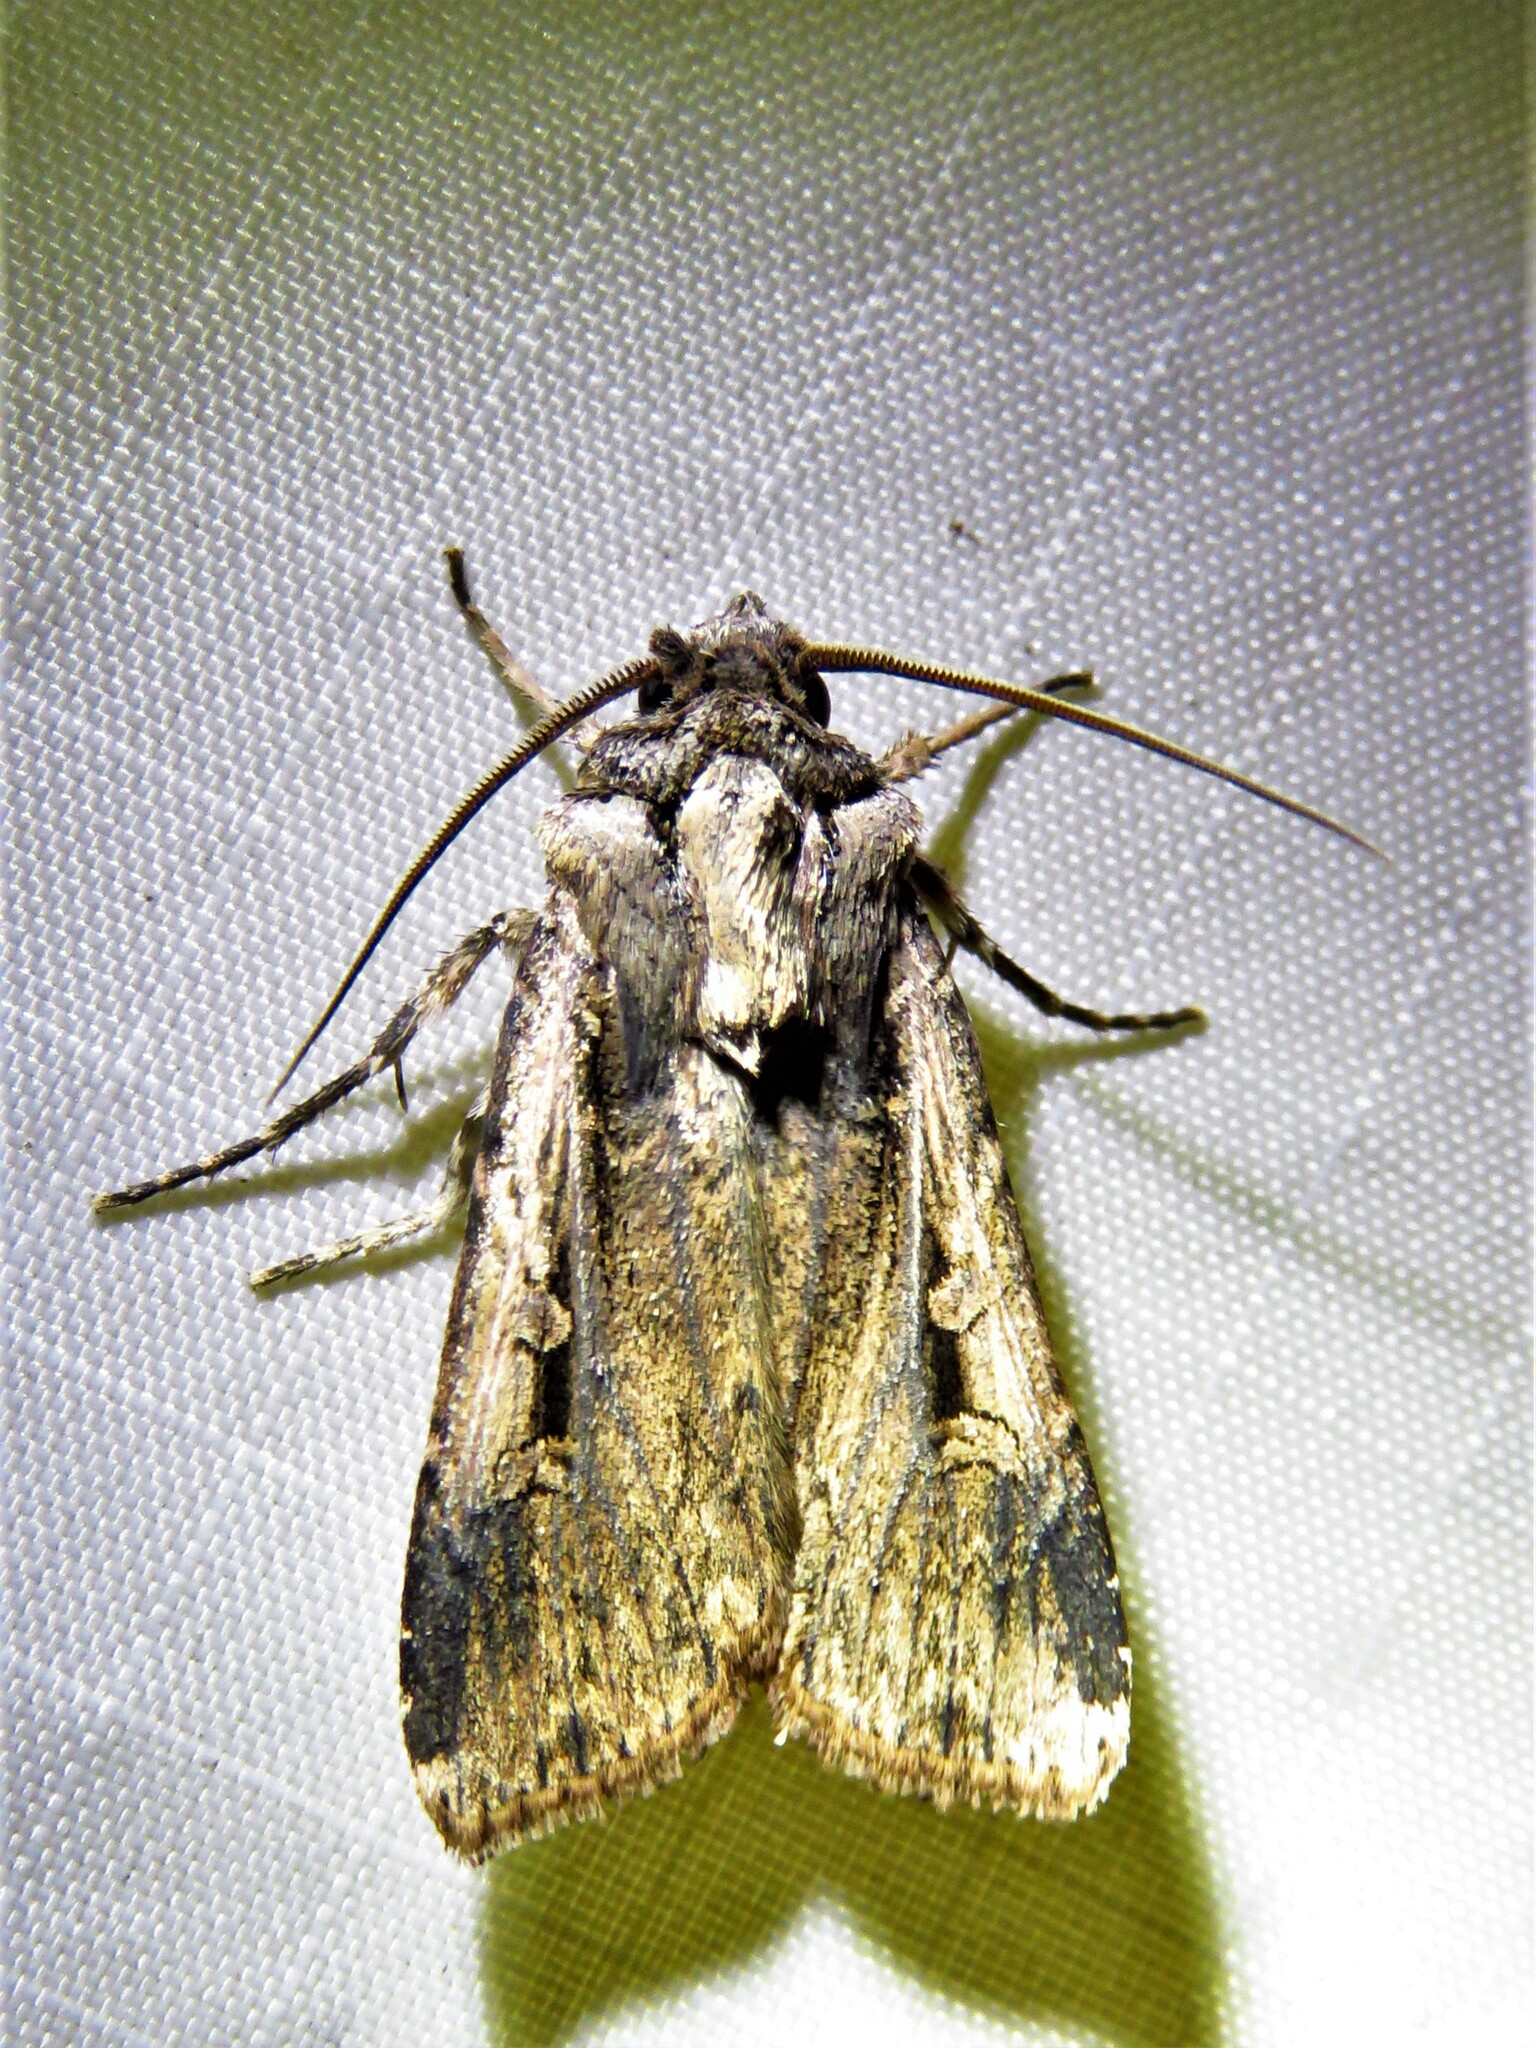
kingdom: Animalia
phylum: Arthropoda
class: Insecta
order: Lepidoptera
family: Noctuidae
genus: Feltia
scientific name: Feltia subterranea
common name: Granulate cutworm
